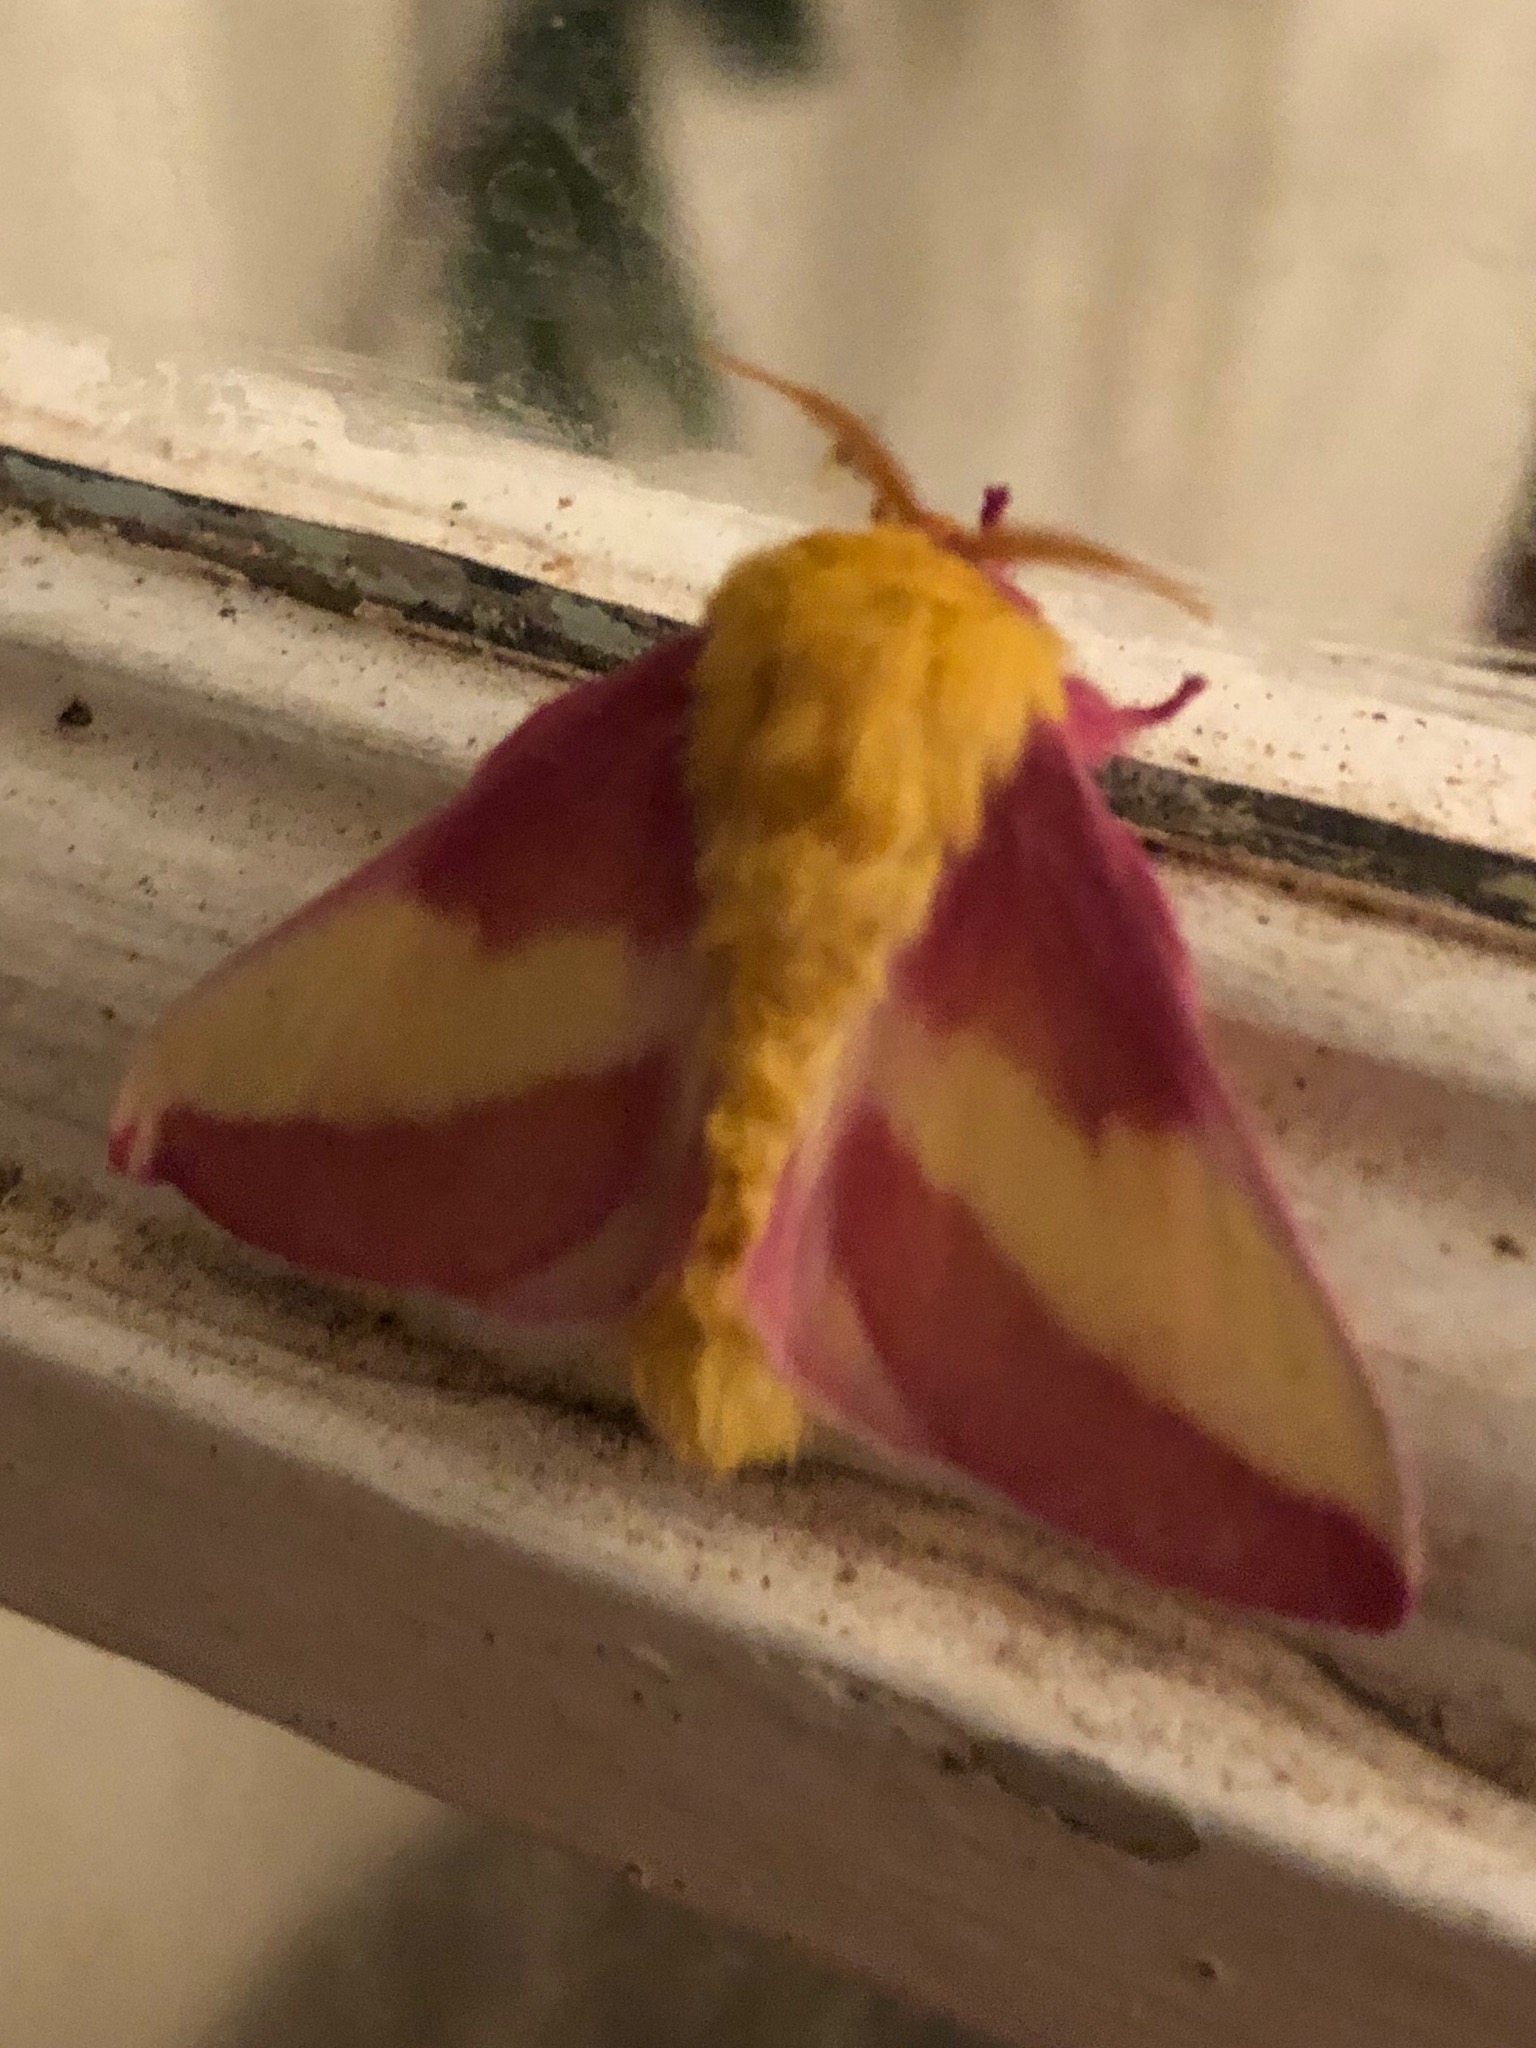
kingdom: Animalia
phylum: Arthropoda
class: Insecta
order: Lepidoptera
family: Saturniidae
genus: Dryocampa
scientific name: Dryocampa rubicunda
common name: Rosy maple moth
